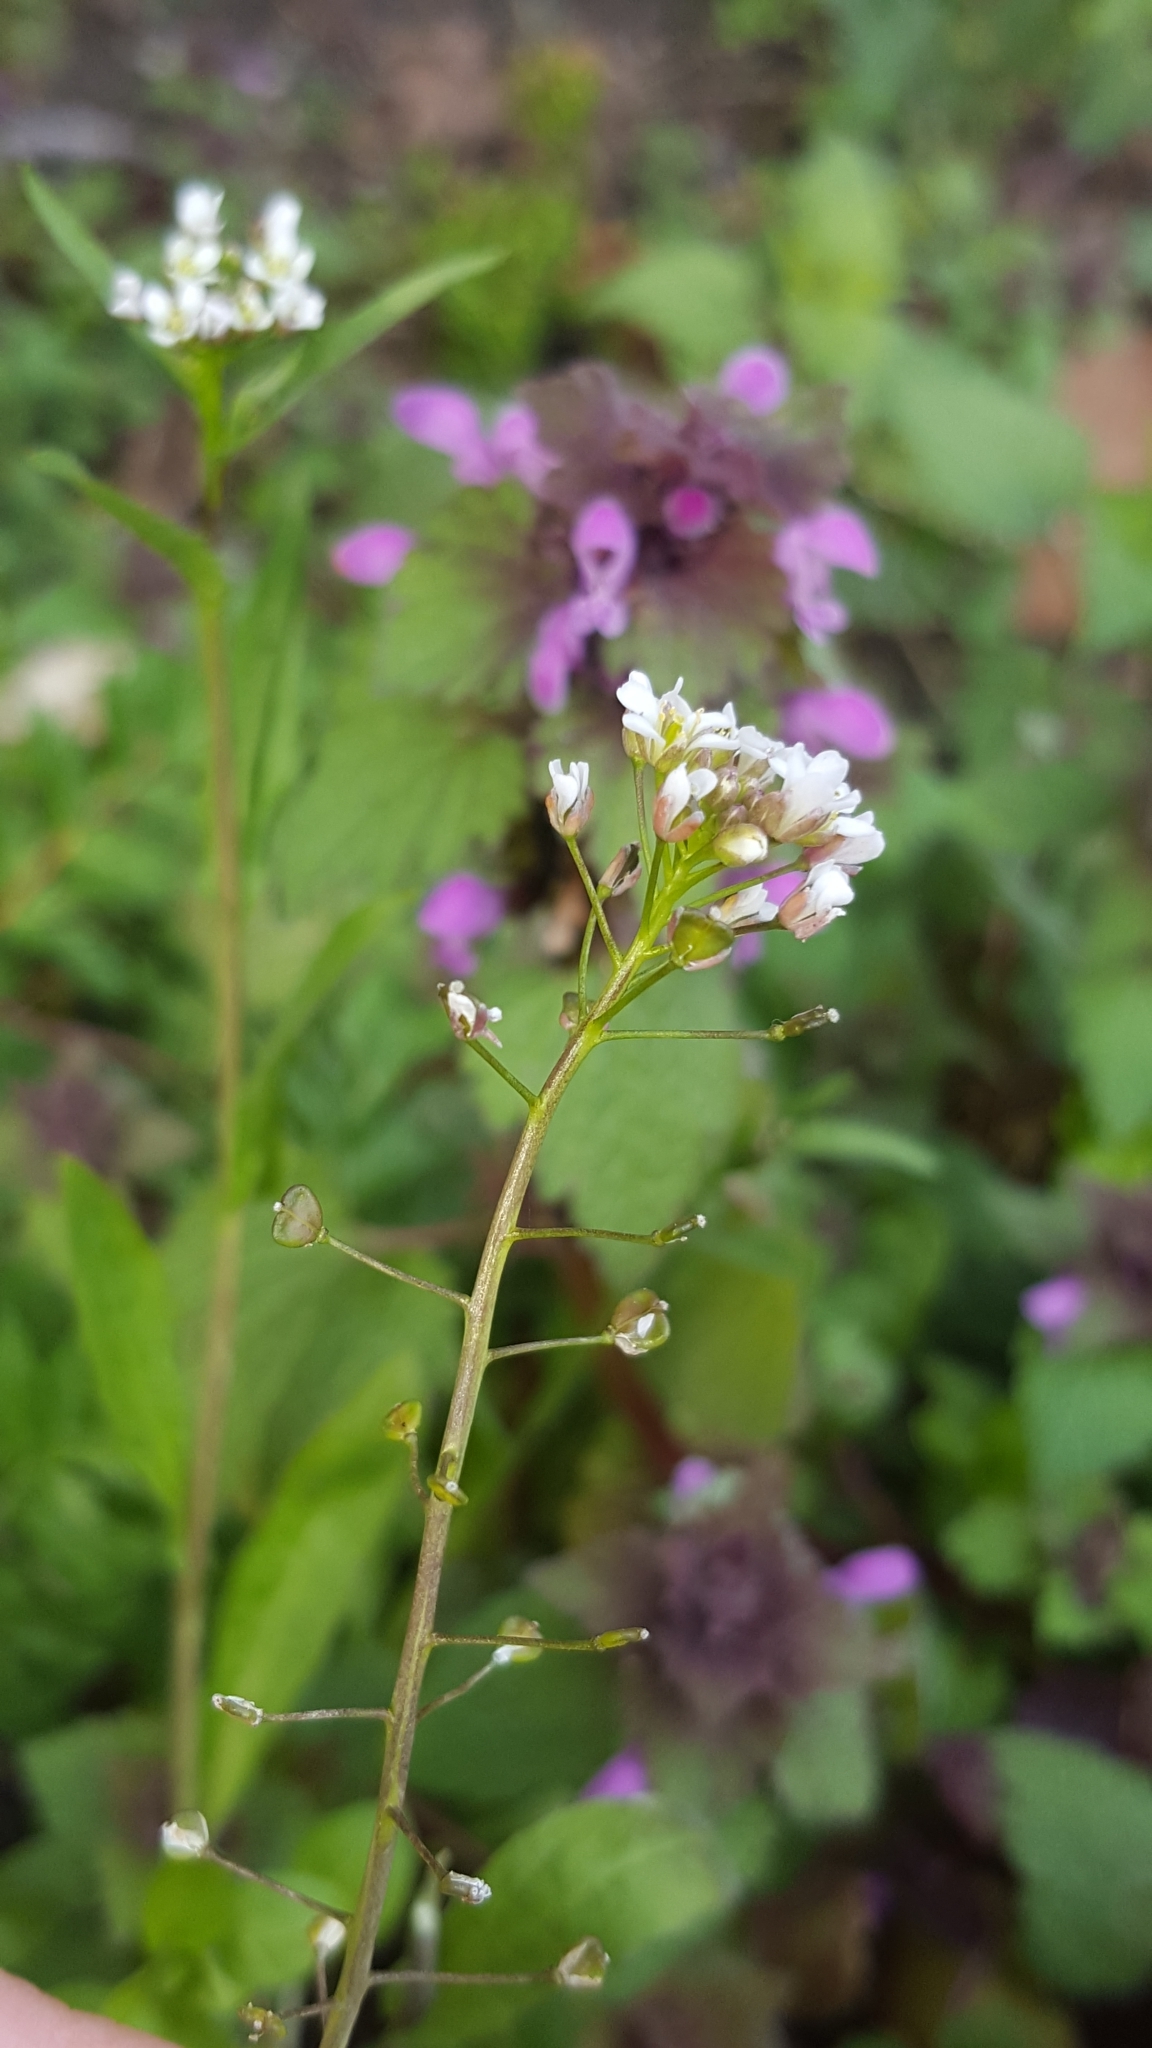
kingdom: Plantae
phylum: Tracheophyta
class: Magnoliopsida
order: Brassicales
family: Brassicaceae
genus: Capsella
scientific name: Capsella bursa-pastoris
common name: Shepherd's purse
